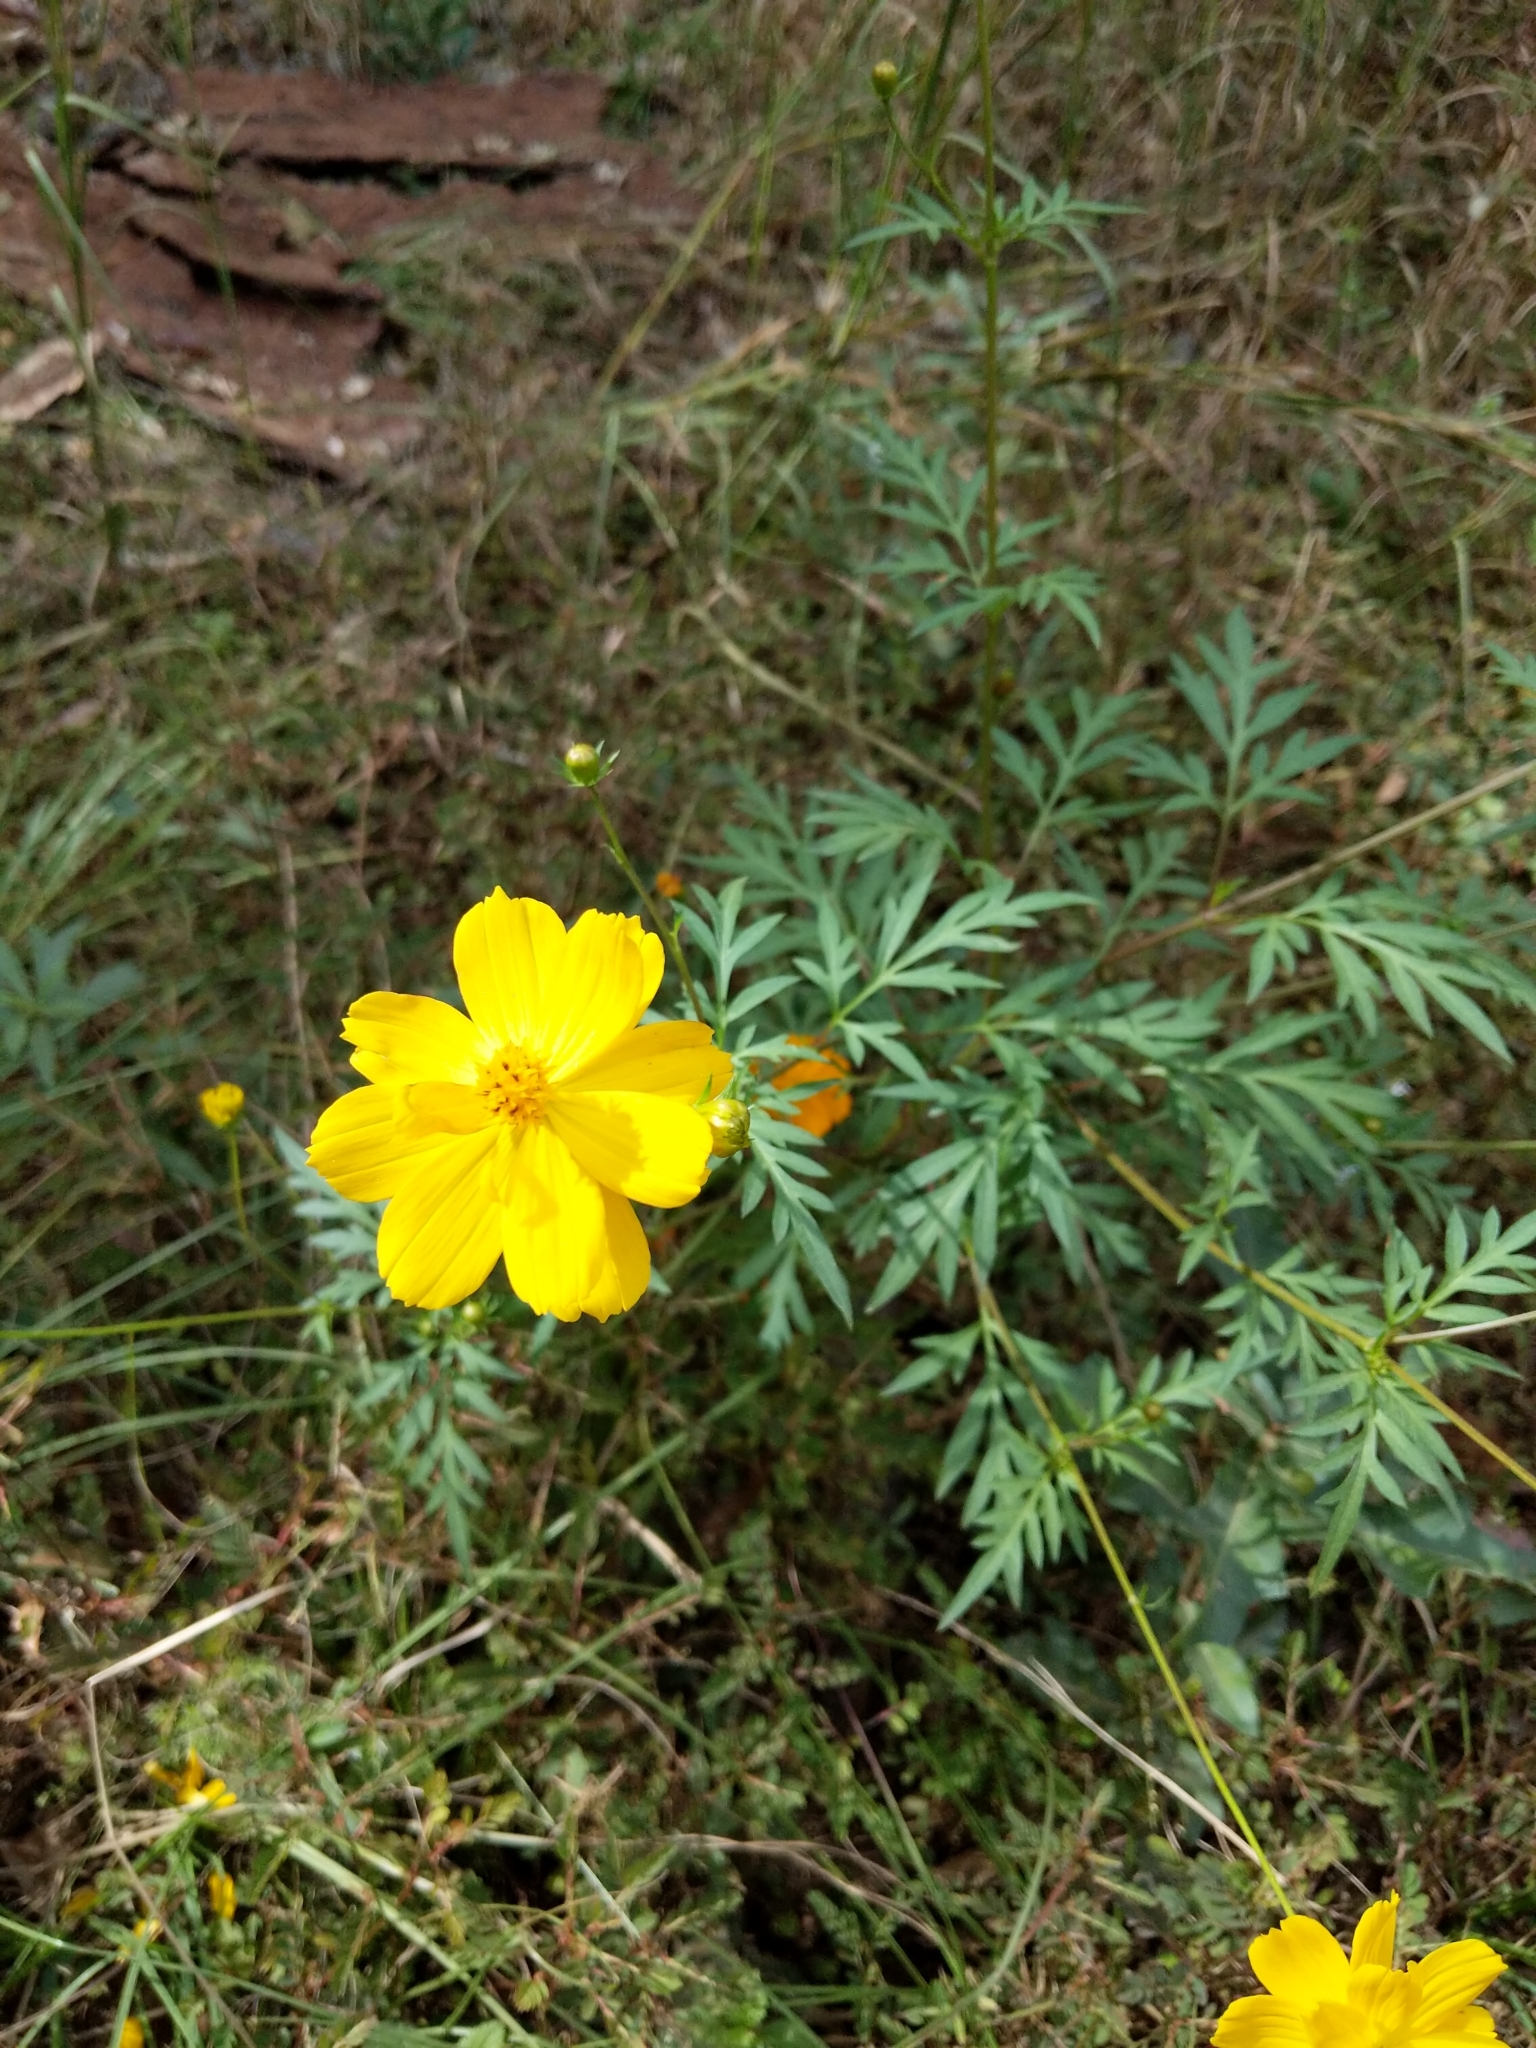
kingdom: Plantae
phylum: Tracheophyta
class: Magnoliopsida
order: Asterales
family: Asteraceae
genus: Cosmos
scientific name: Cosmos sulphureus
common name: Sulphur cosmos
